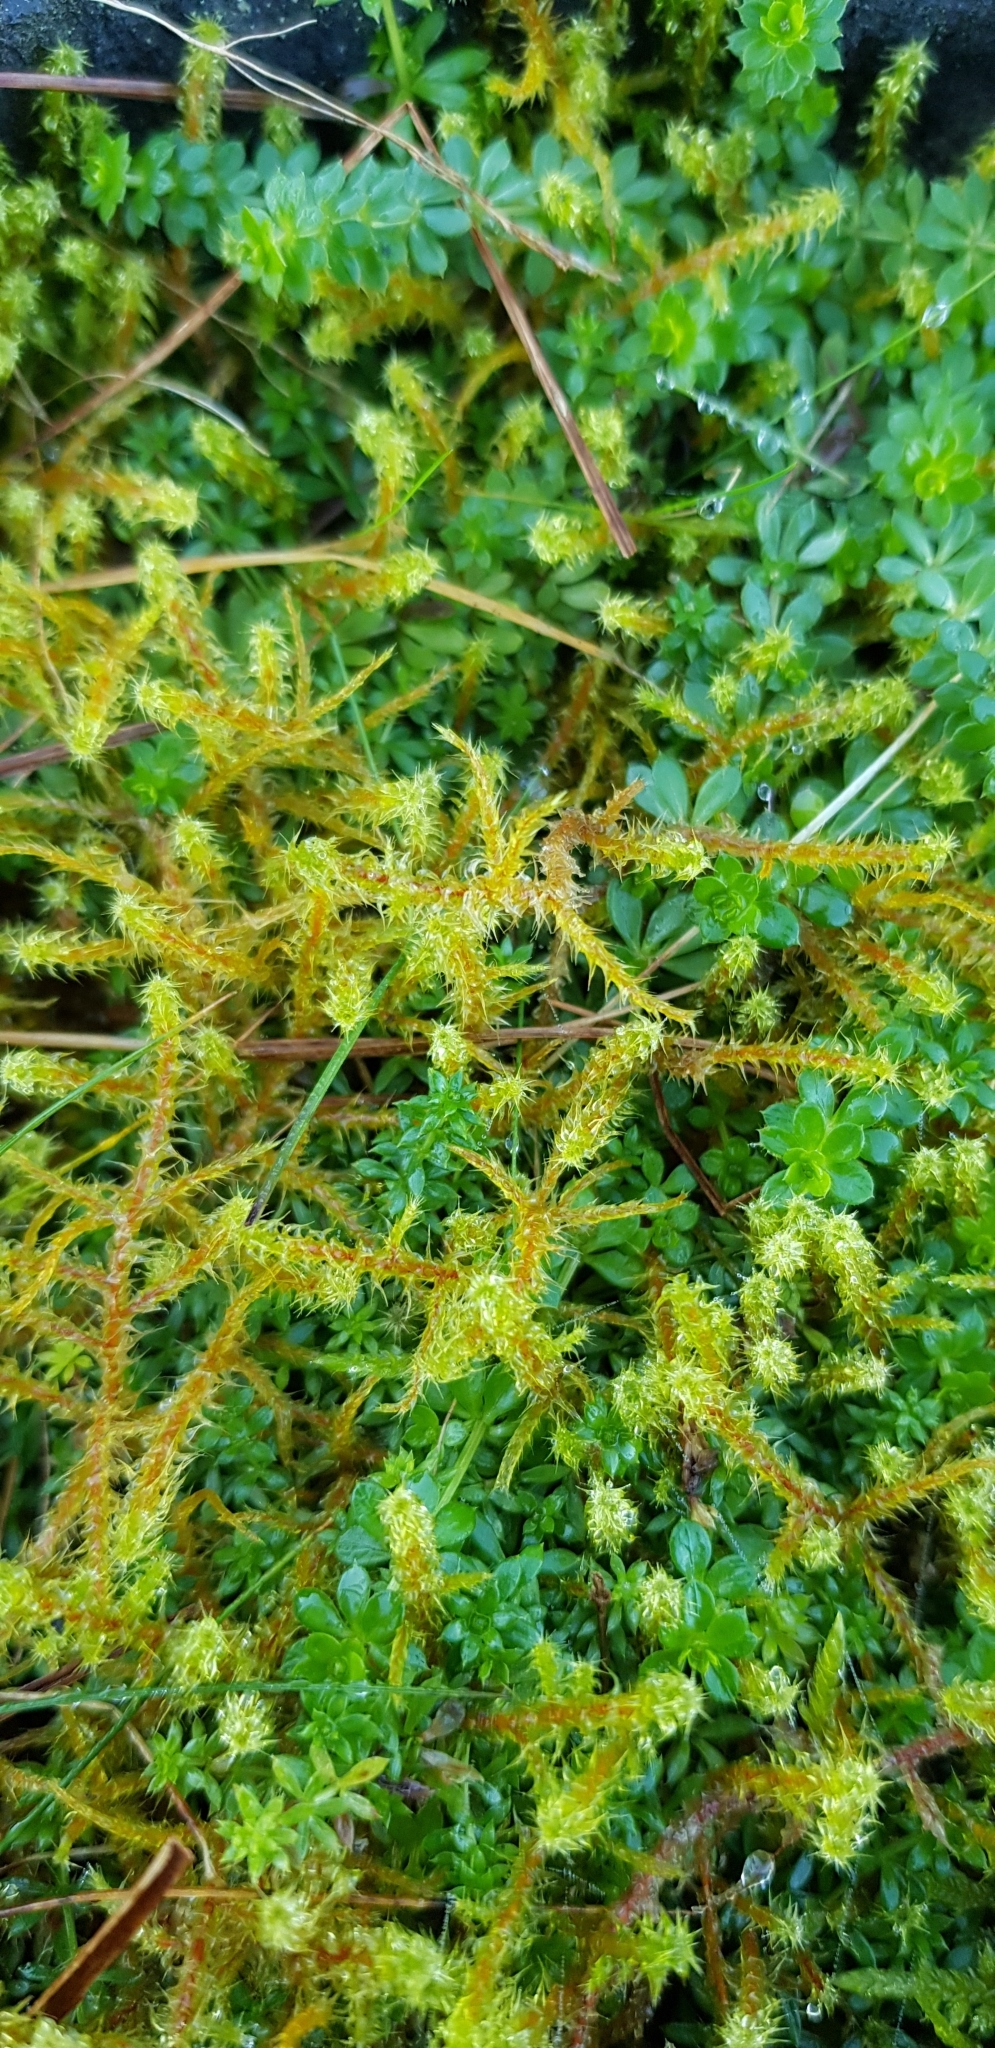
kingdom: Plantae
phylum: Bryophyta
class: Bryopsida
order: Hypnales
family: Hylocomiaceae
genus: Rhytidiadelphus
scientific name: Rhytidiadelphus squarrosus
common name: Springy turf-moss
